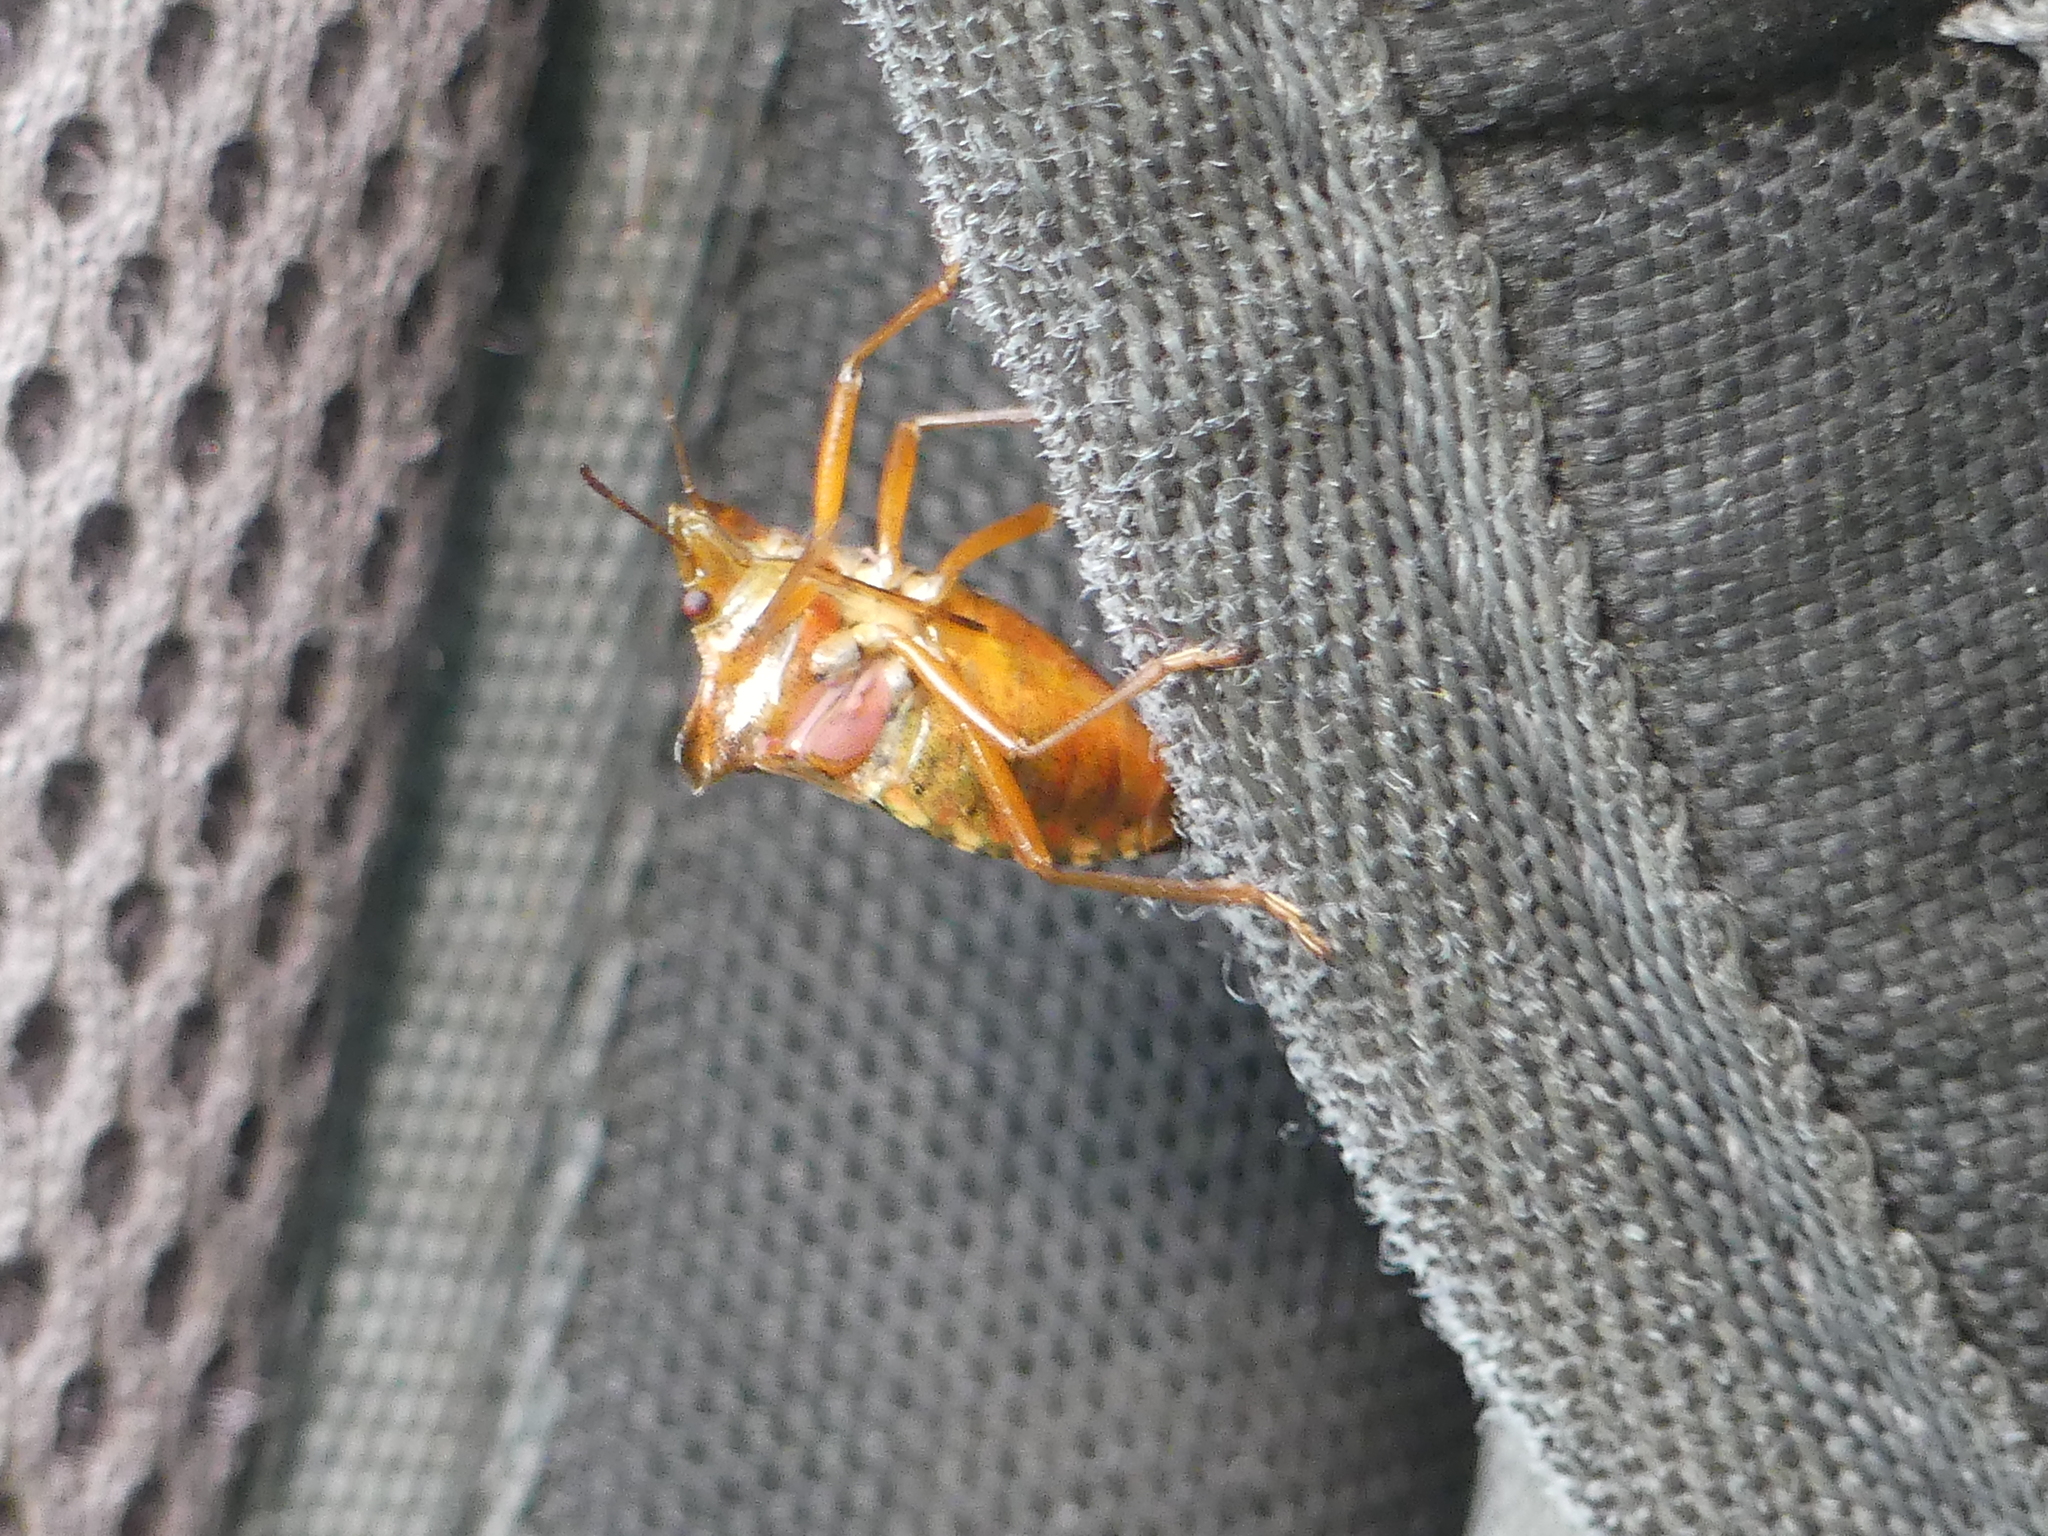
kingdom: Animalia
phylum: Arthropoda
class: Insecta
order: Hemiptera
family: Pentatomidae
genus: Pentatoma
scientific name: Pentatoma rufipes
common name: Forest bug
